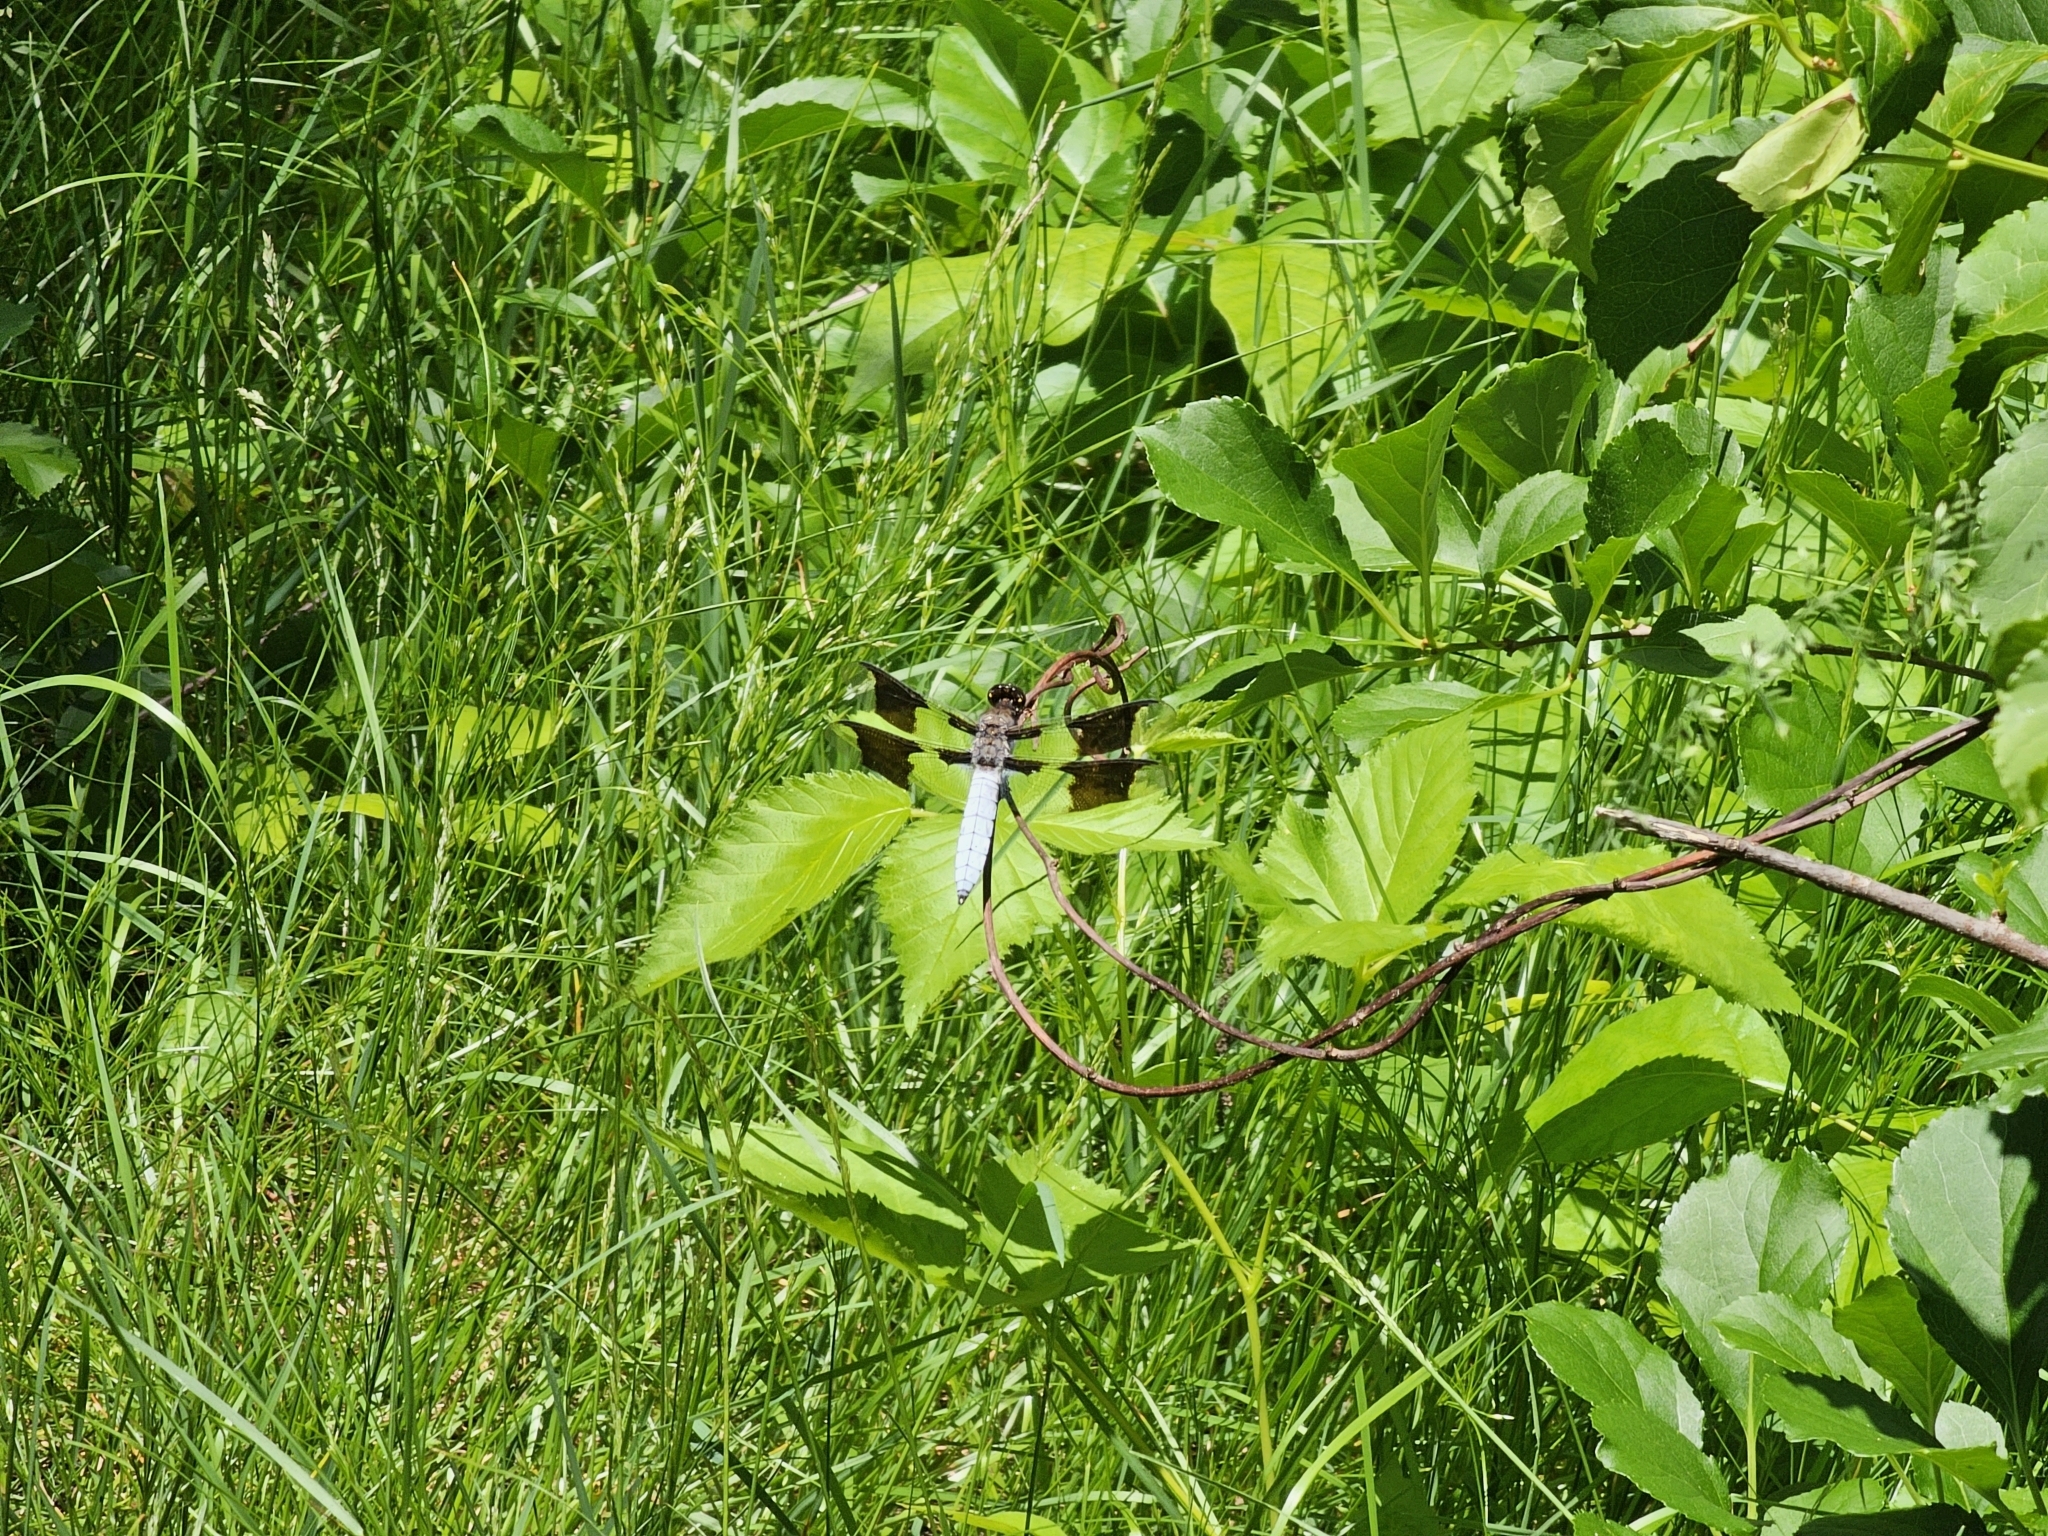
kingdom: Animalia
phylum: Arthropoda
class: Insecta
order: Odonata
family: Libellulidae
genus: Plathemis
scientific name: Plathemis lydia
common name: Common whitetail
